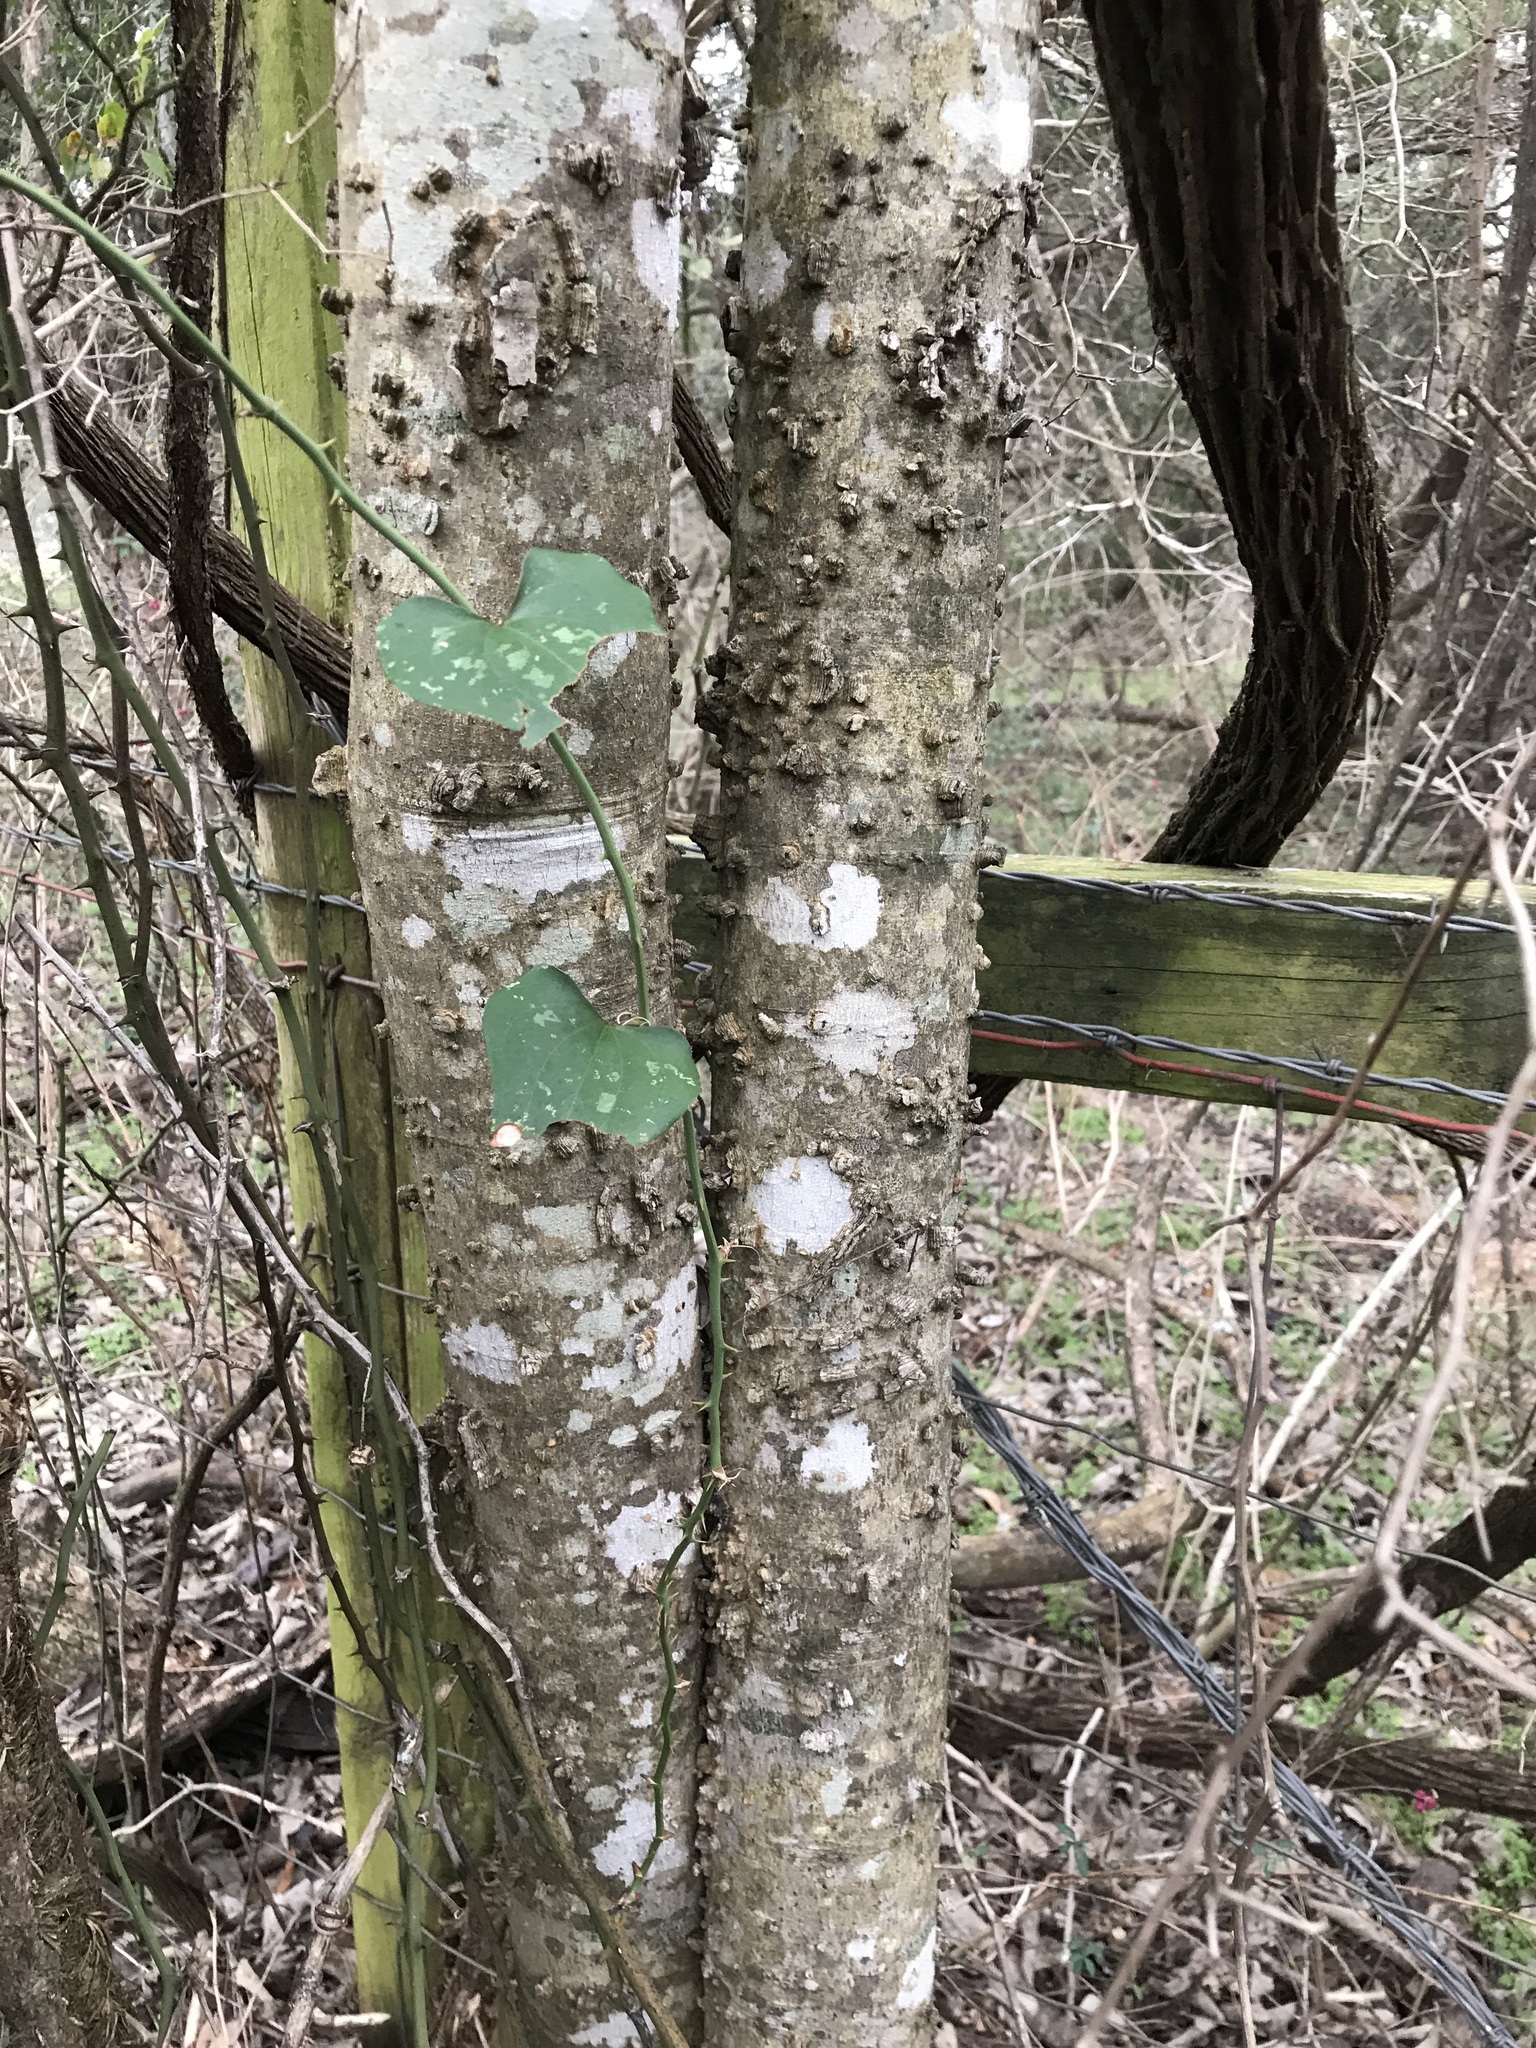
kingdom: Fungi
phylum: Ascomycota
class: Lecanoromycetes
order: Ostropales
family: Stictidaceae
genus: Robergea
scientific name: Robergea
